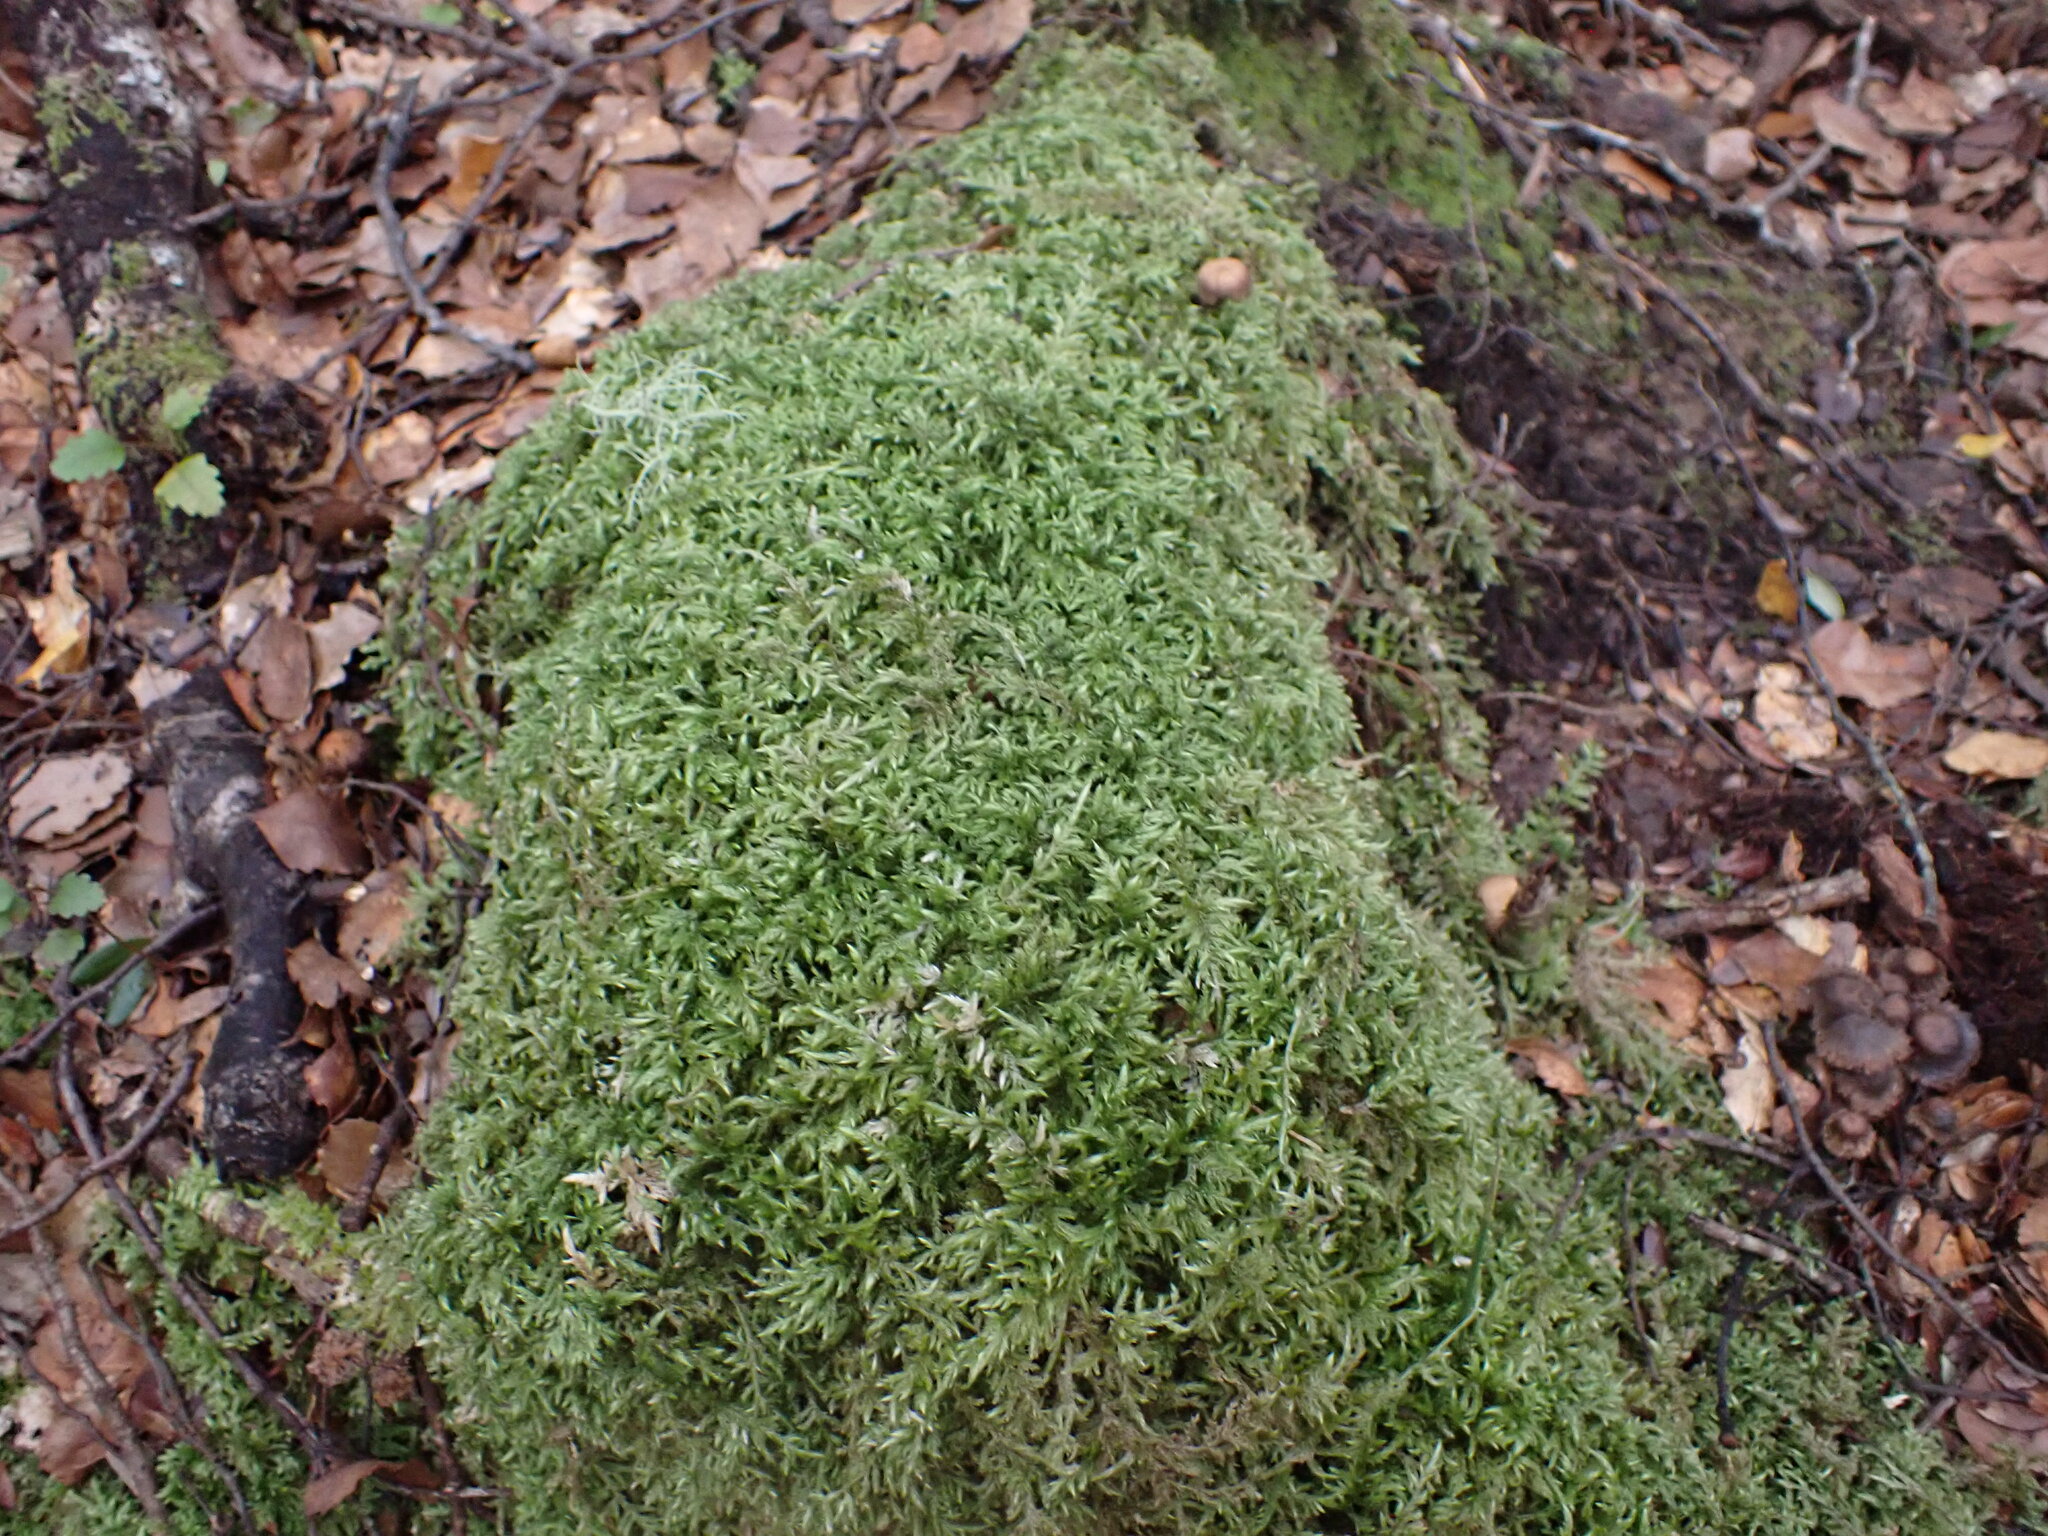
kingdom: Plantae
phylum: Bryophyta
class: Bryopsida
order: Hypnales
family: Pylaisiadelphaceae
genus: Wijkia
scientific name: Wijkia extenuata
